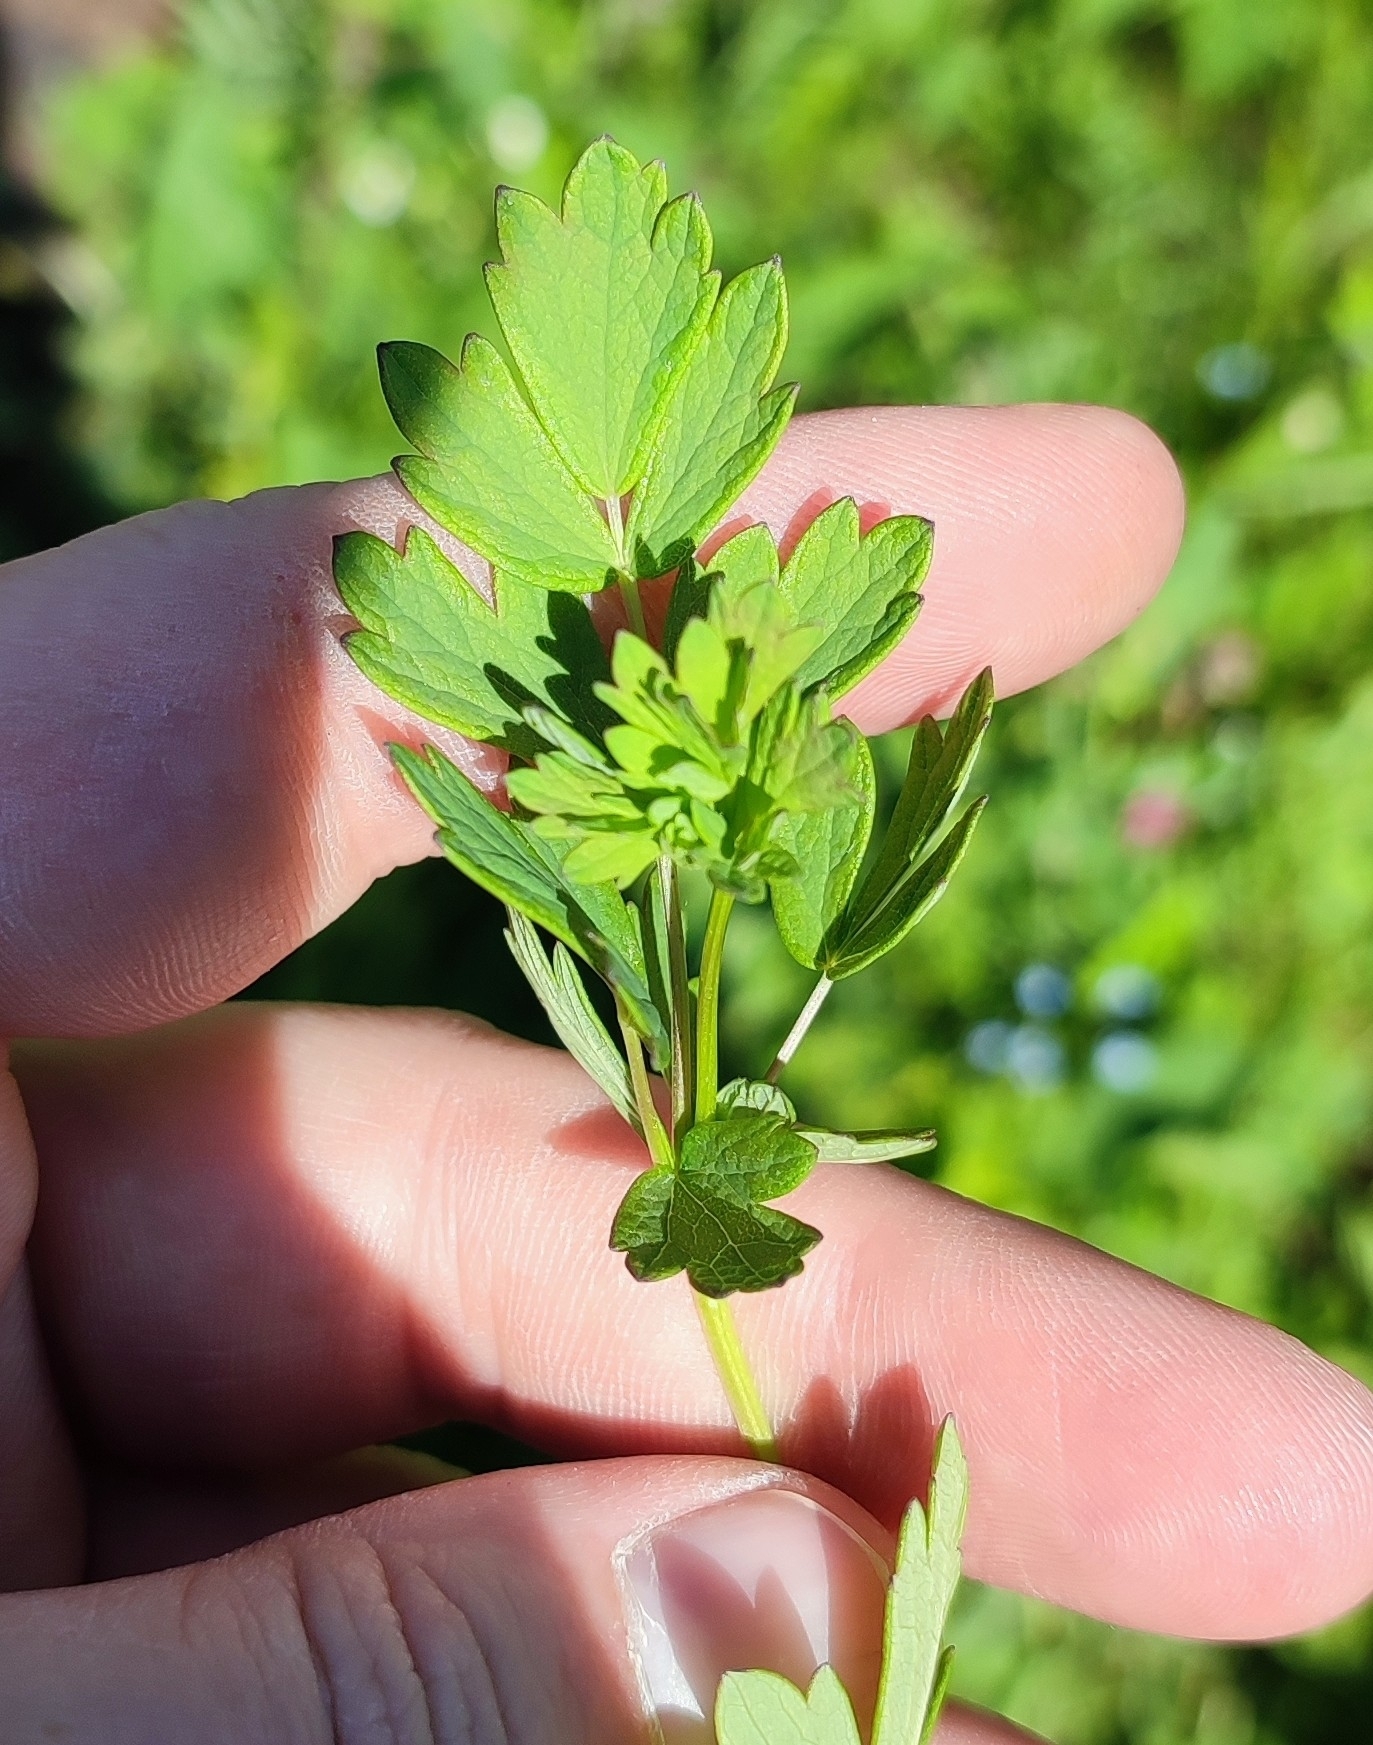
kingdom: Plantae
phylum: Tracheophyta
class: Magnoliopsida
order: Ranunculales
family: Ranunculaceae
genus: Thalictrum
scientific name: Thalictrum simplex
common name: Small meadow-rue
